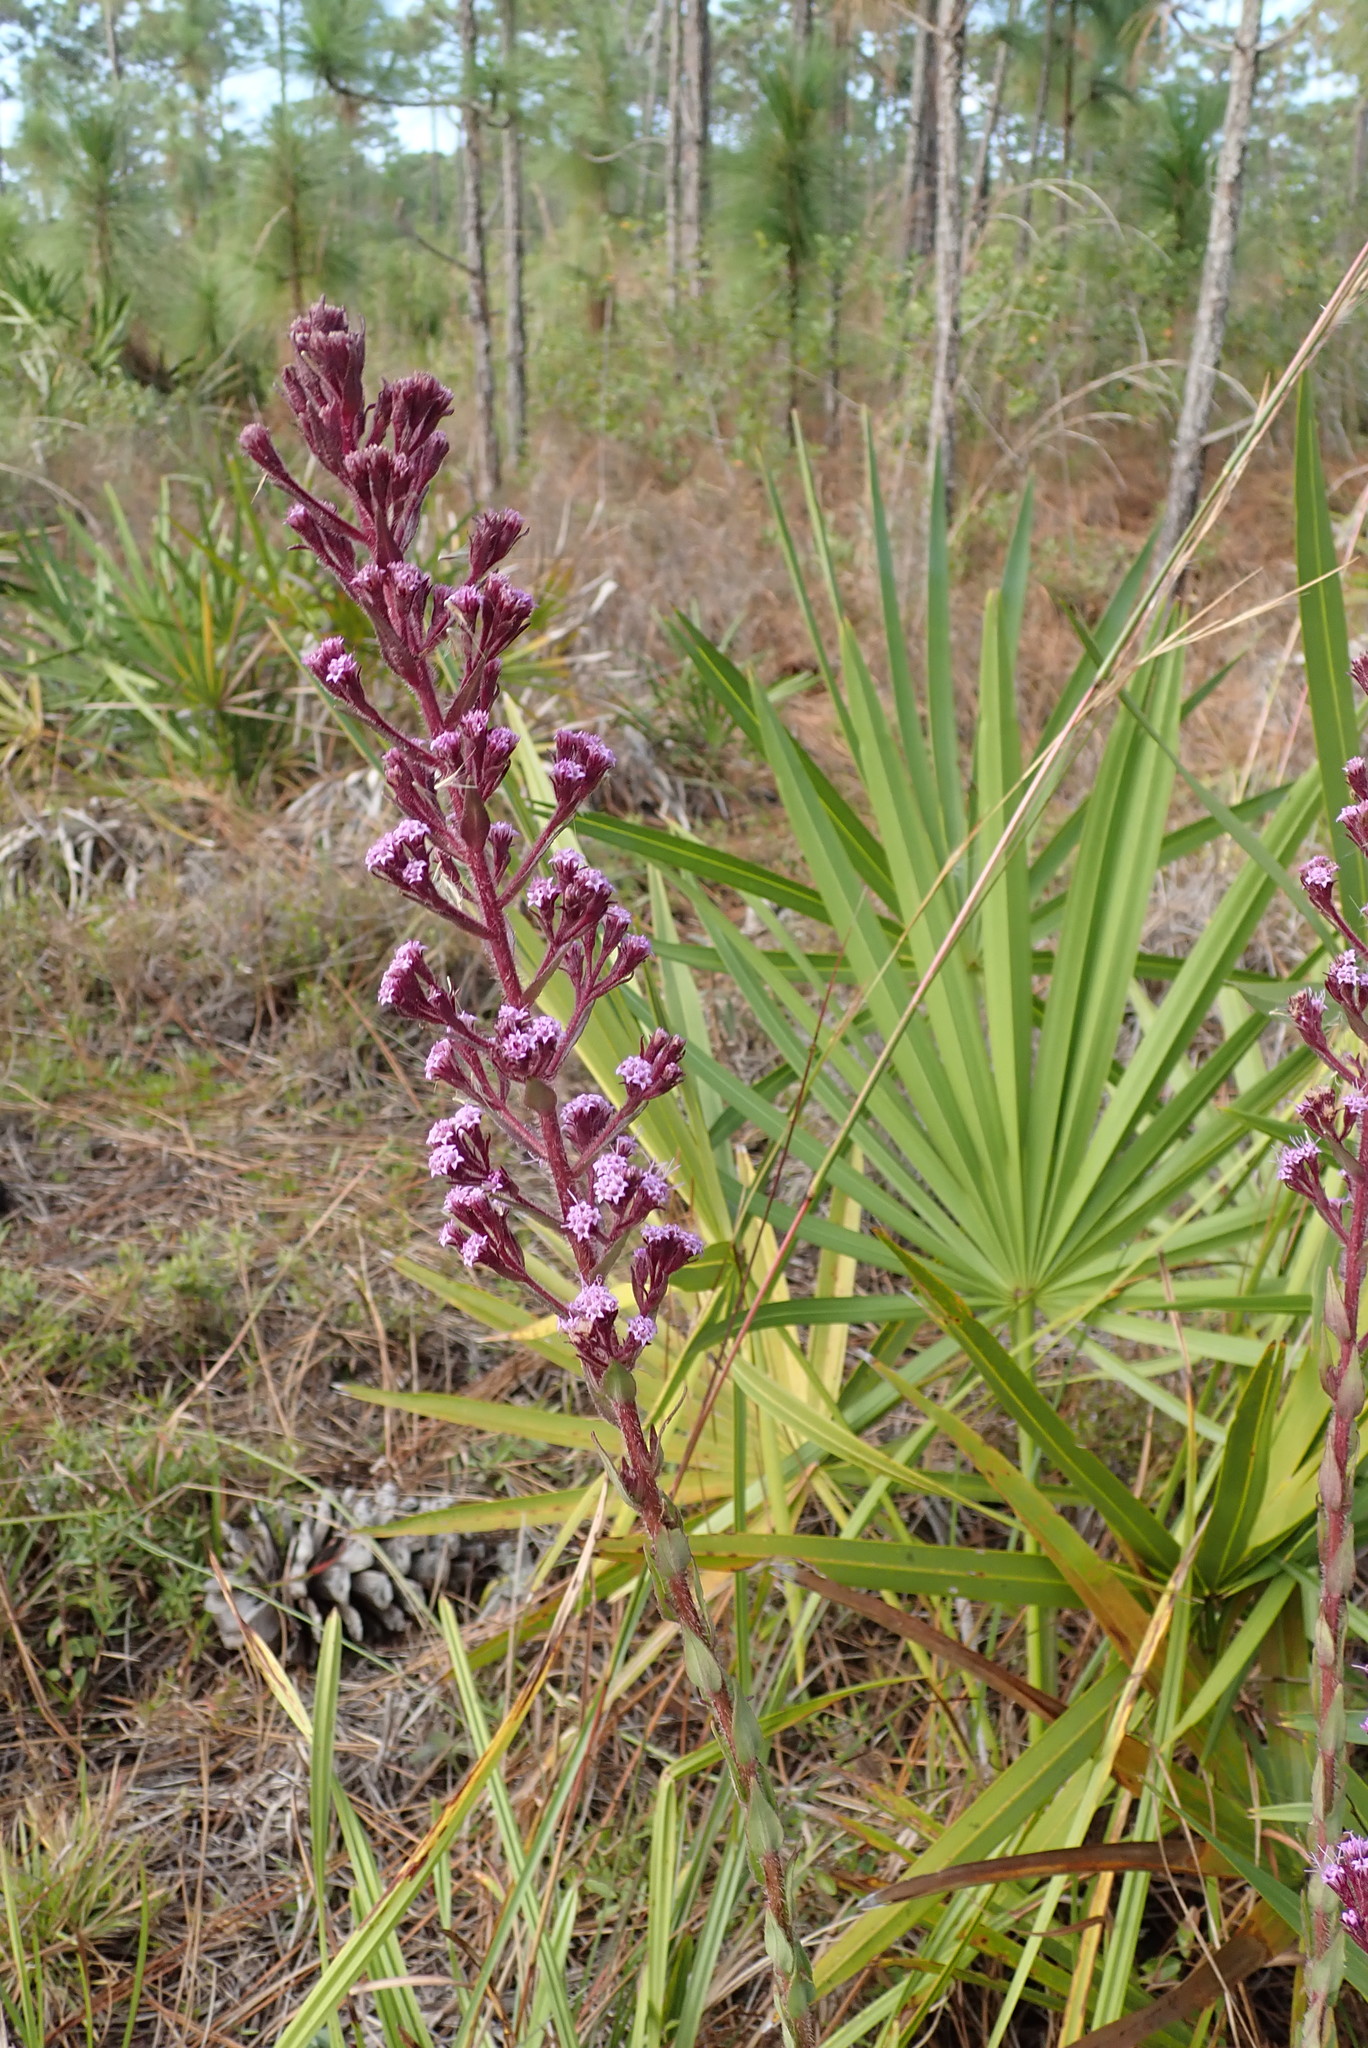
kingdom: Plantae
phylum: Tracheophyta
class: Magnoliopsida
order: Asterales
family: Asteraceae
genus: Carphephorus
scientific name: Carphephorus paniculatus
